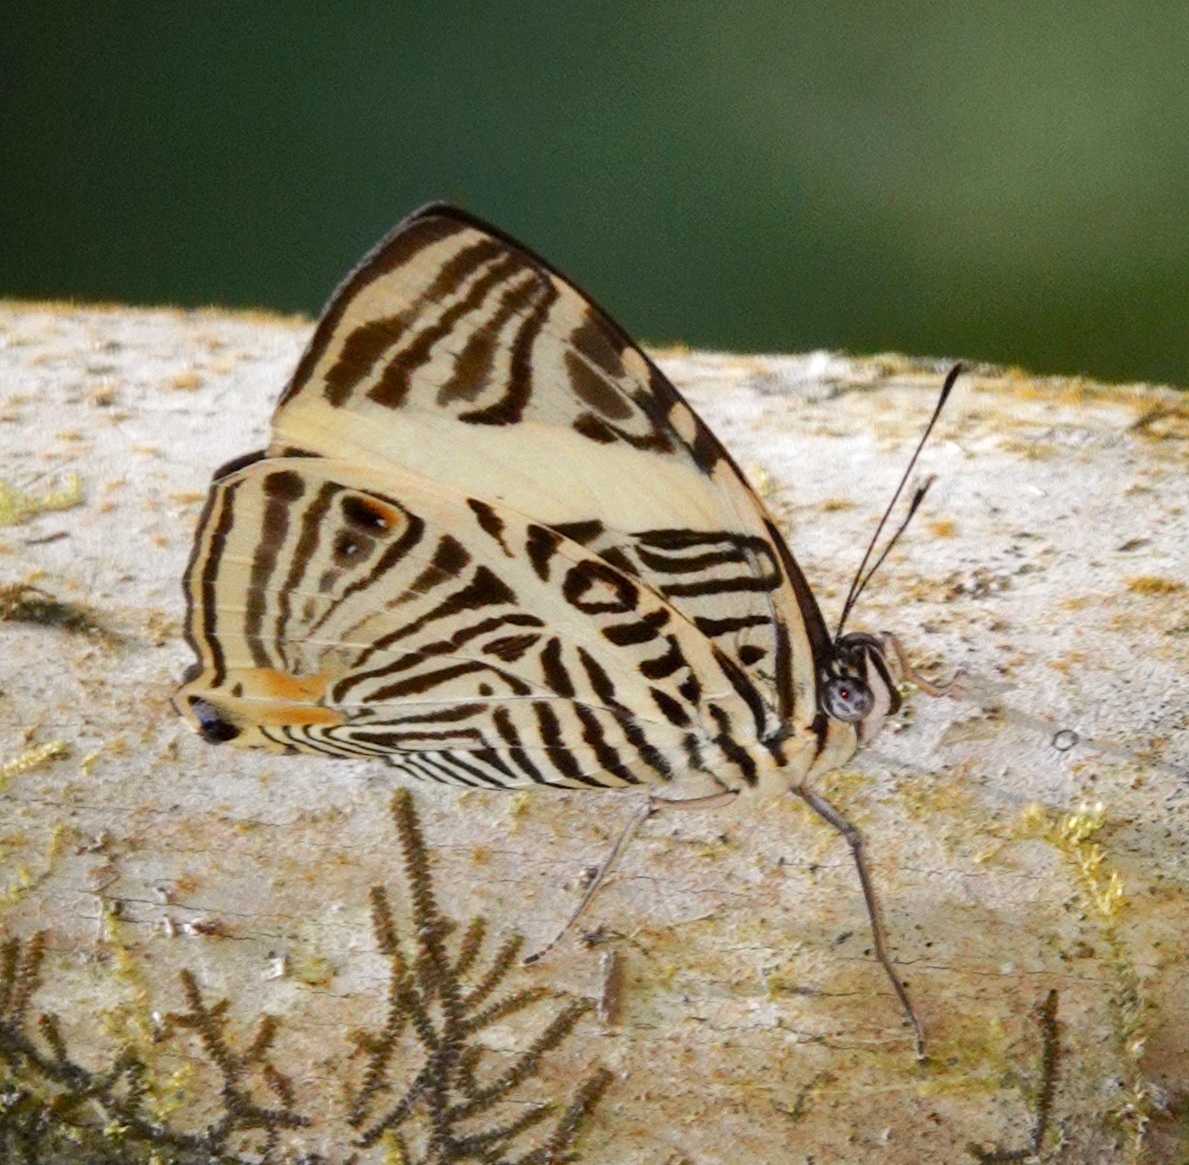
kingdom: Animalia
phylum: Arthropoda
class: Insecta
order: Lepidoptera
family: Nymphalidae
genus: Colobura
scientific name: Colobura dirce
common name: Dirce beauty
